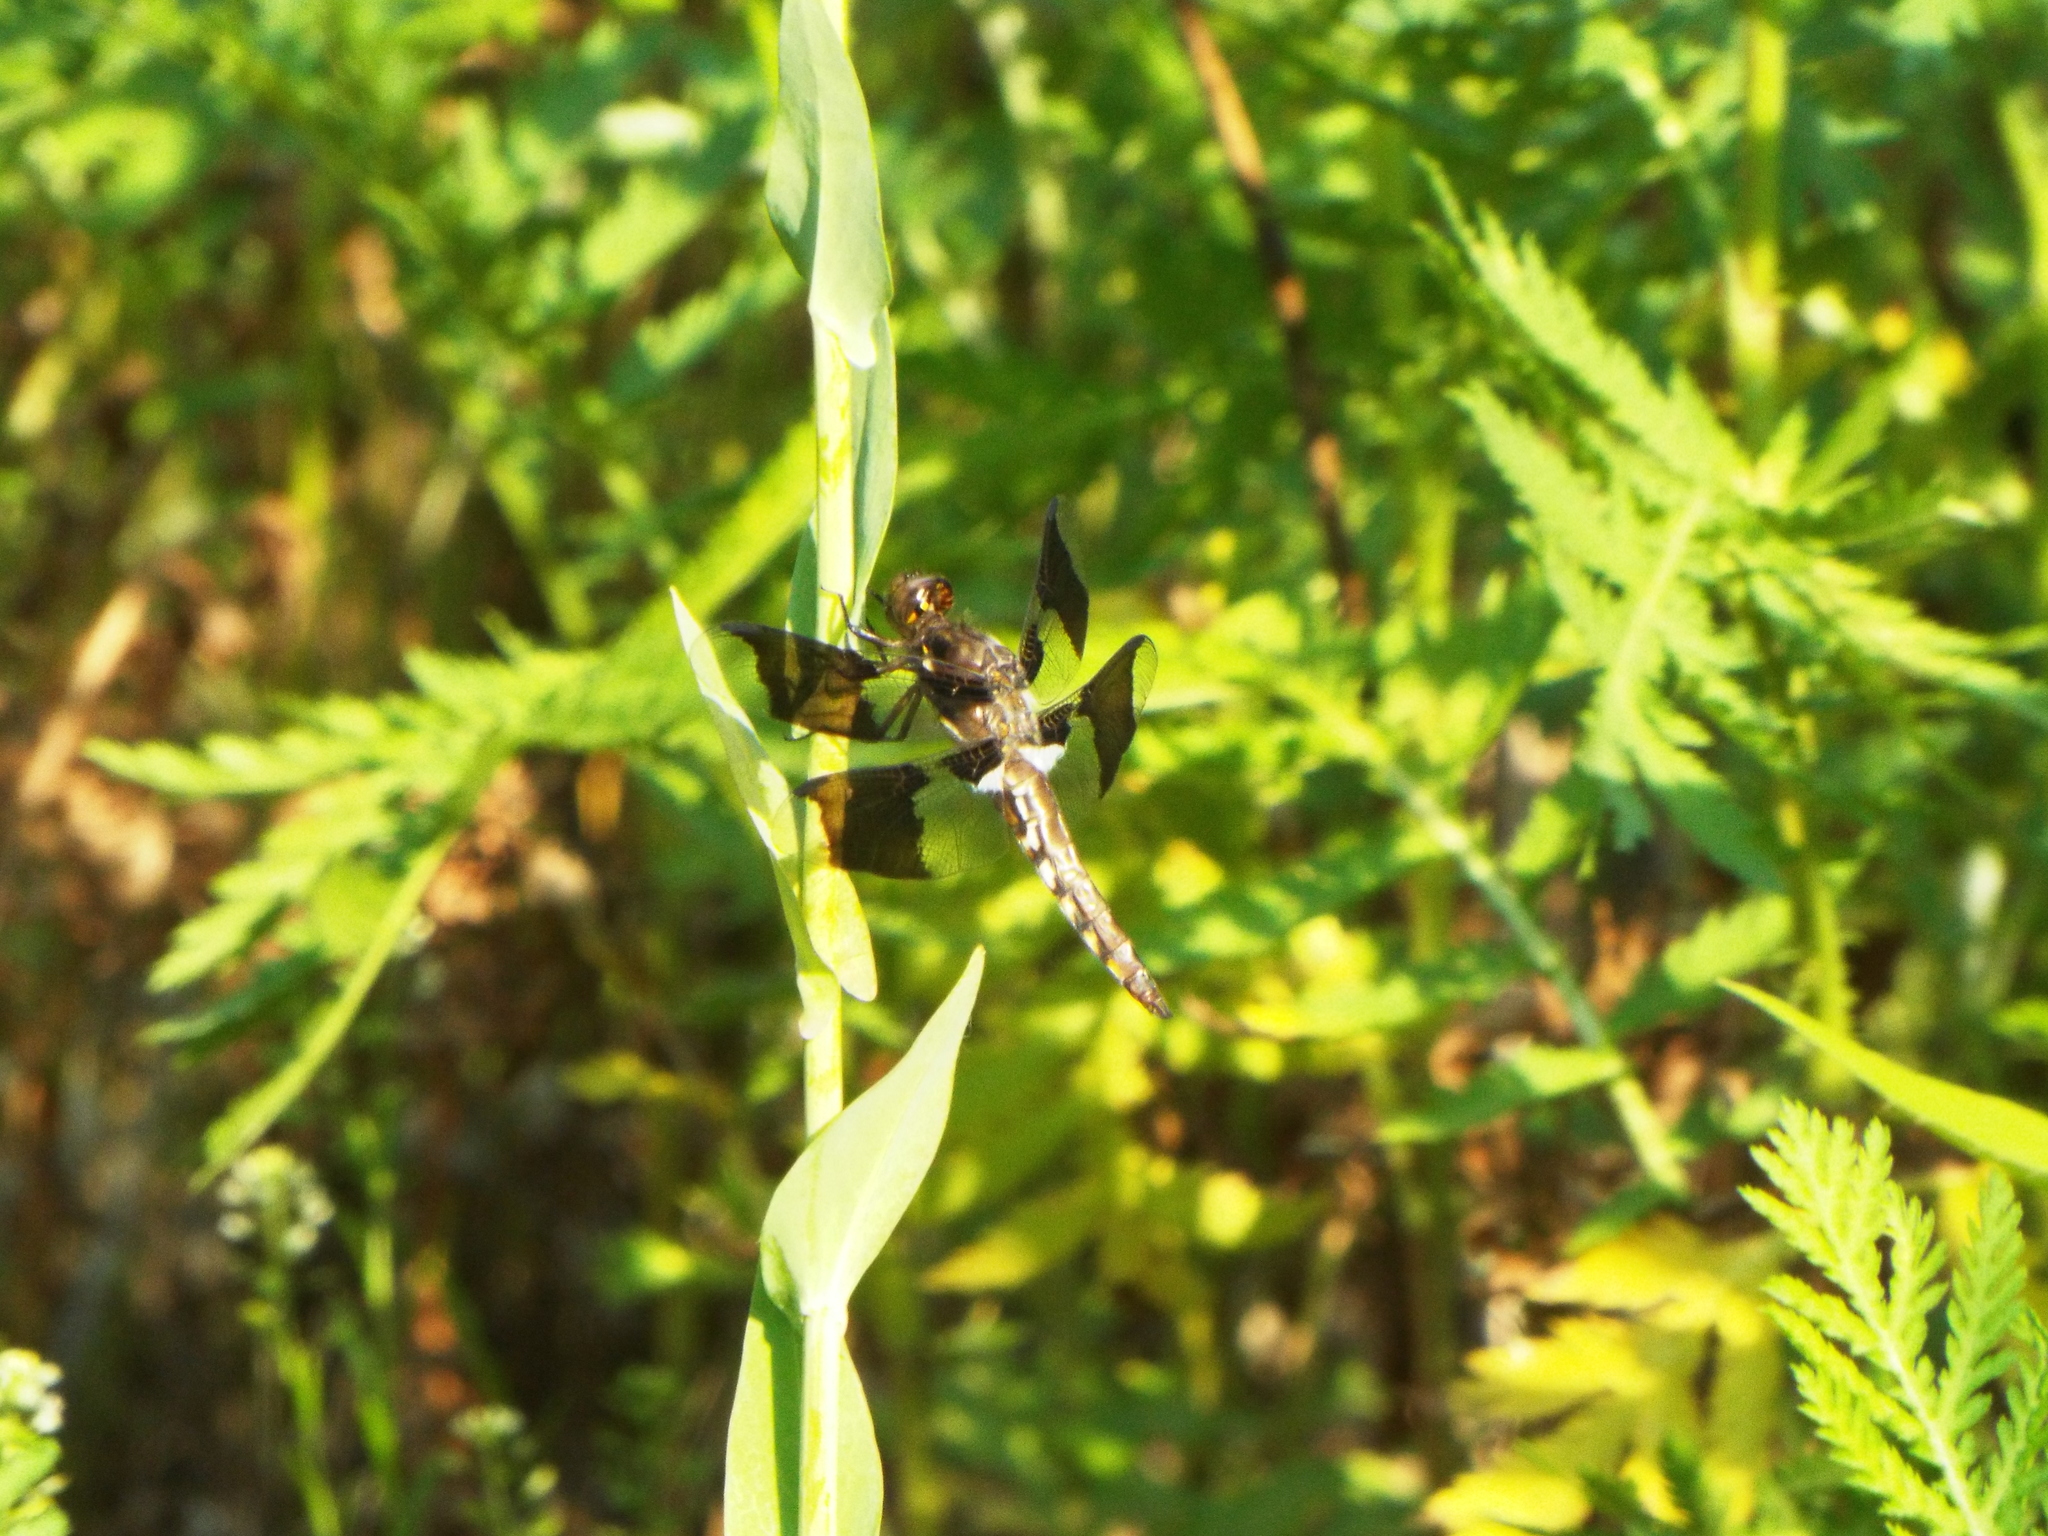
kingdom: Animalia
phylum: Arthropoda
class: Insecta
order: Odonata
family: Libellulidae
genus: Plathemis
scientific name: Plathemis lydia
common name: Common whitetail
